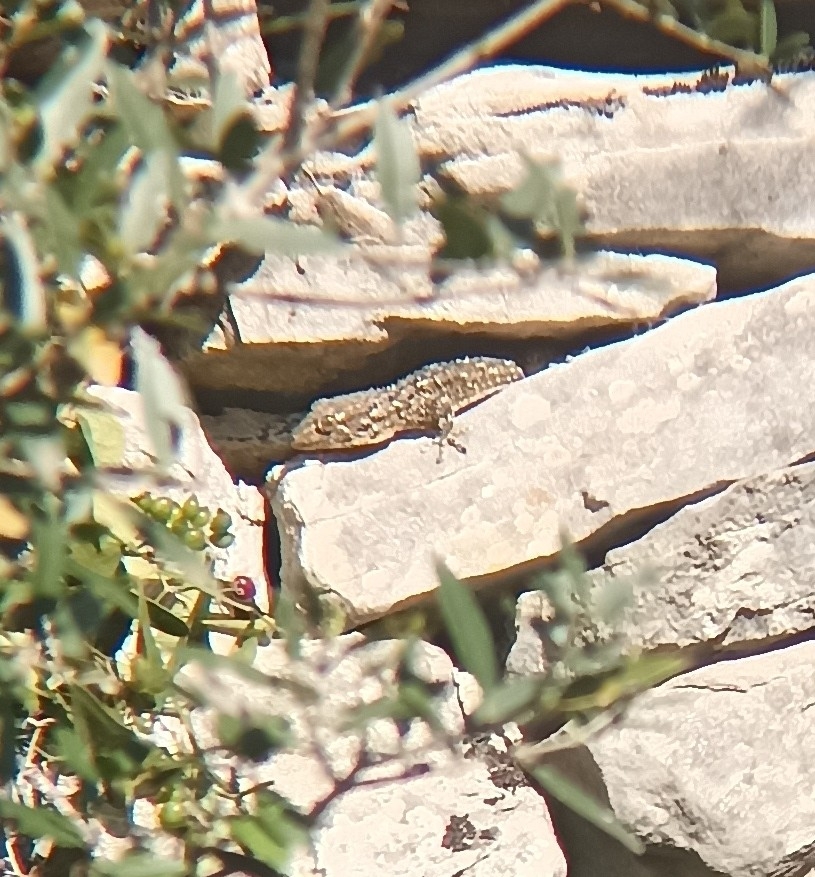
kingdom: Animalia
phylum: Chordata
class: Squamata
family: Phyllodactylidae
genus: Tarentola
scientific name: Tarentola mauritanica
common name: Moorish gecko
